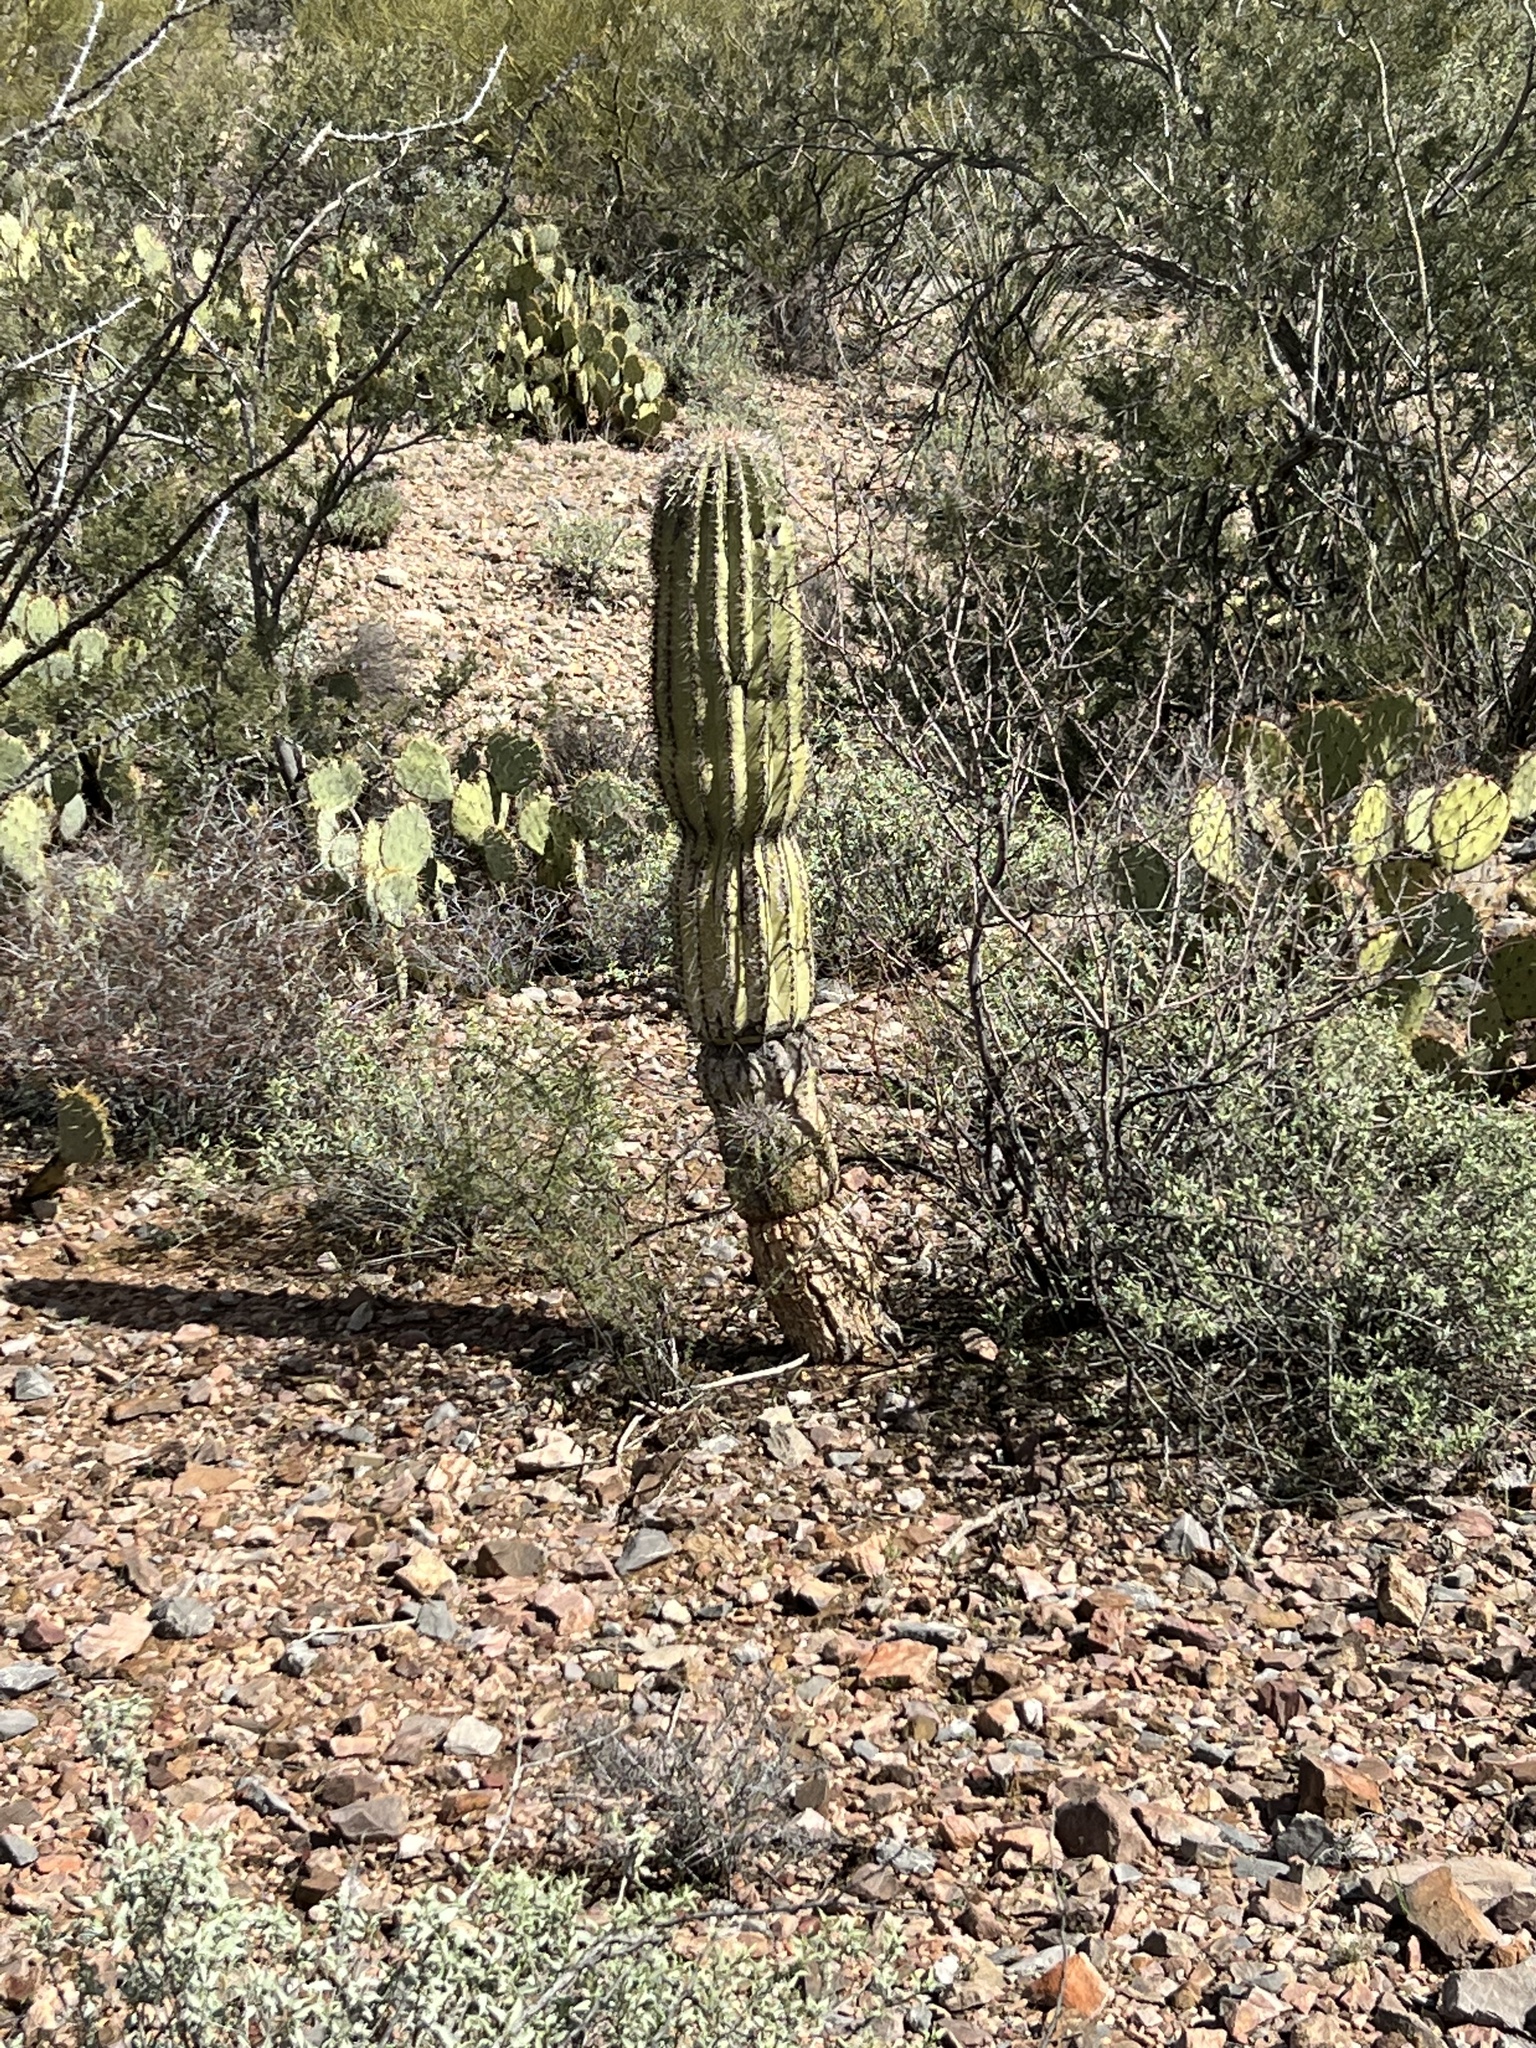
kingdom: Plantae
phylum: Tracheophyta
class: Magnoliopsida
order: Caryophyllales
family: Cactaceae
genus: Carnegiea
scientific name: Carnegiea gigantea
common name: Saguaro
